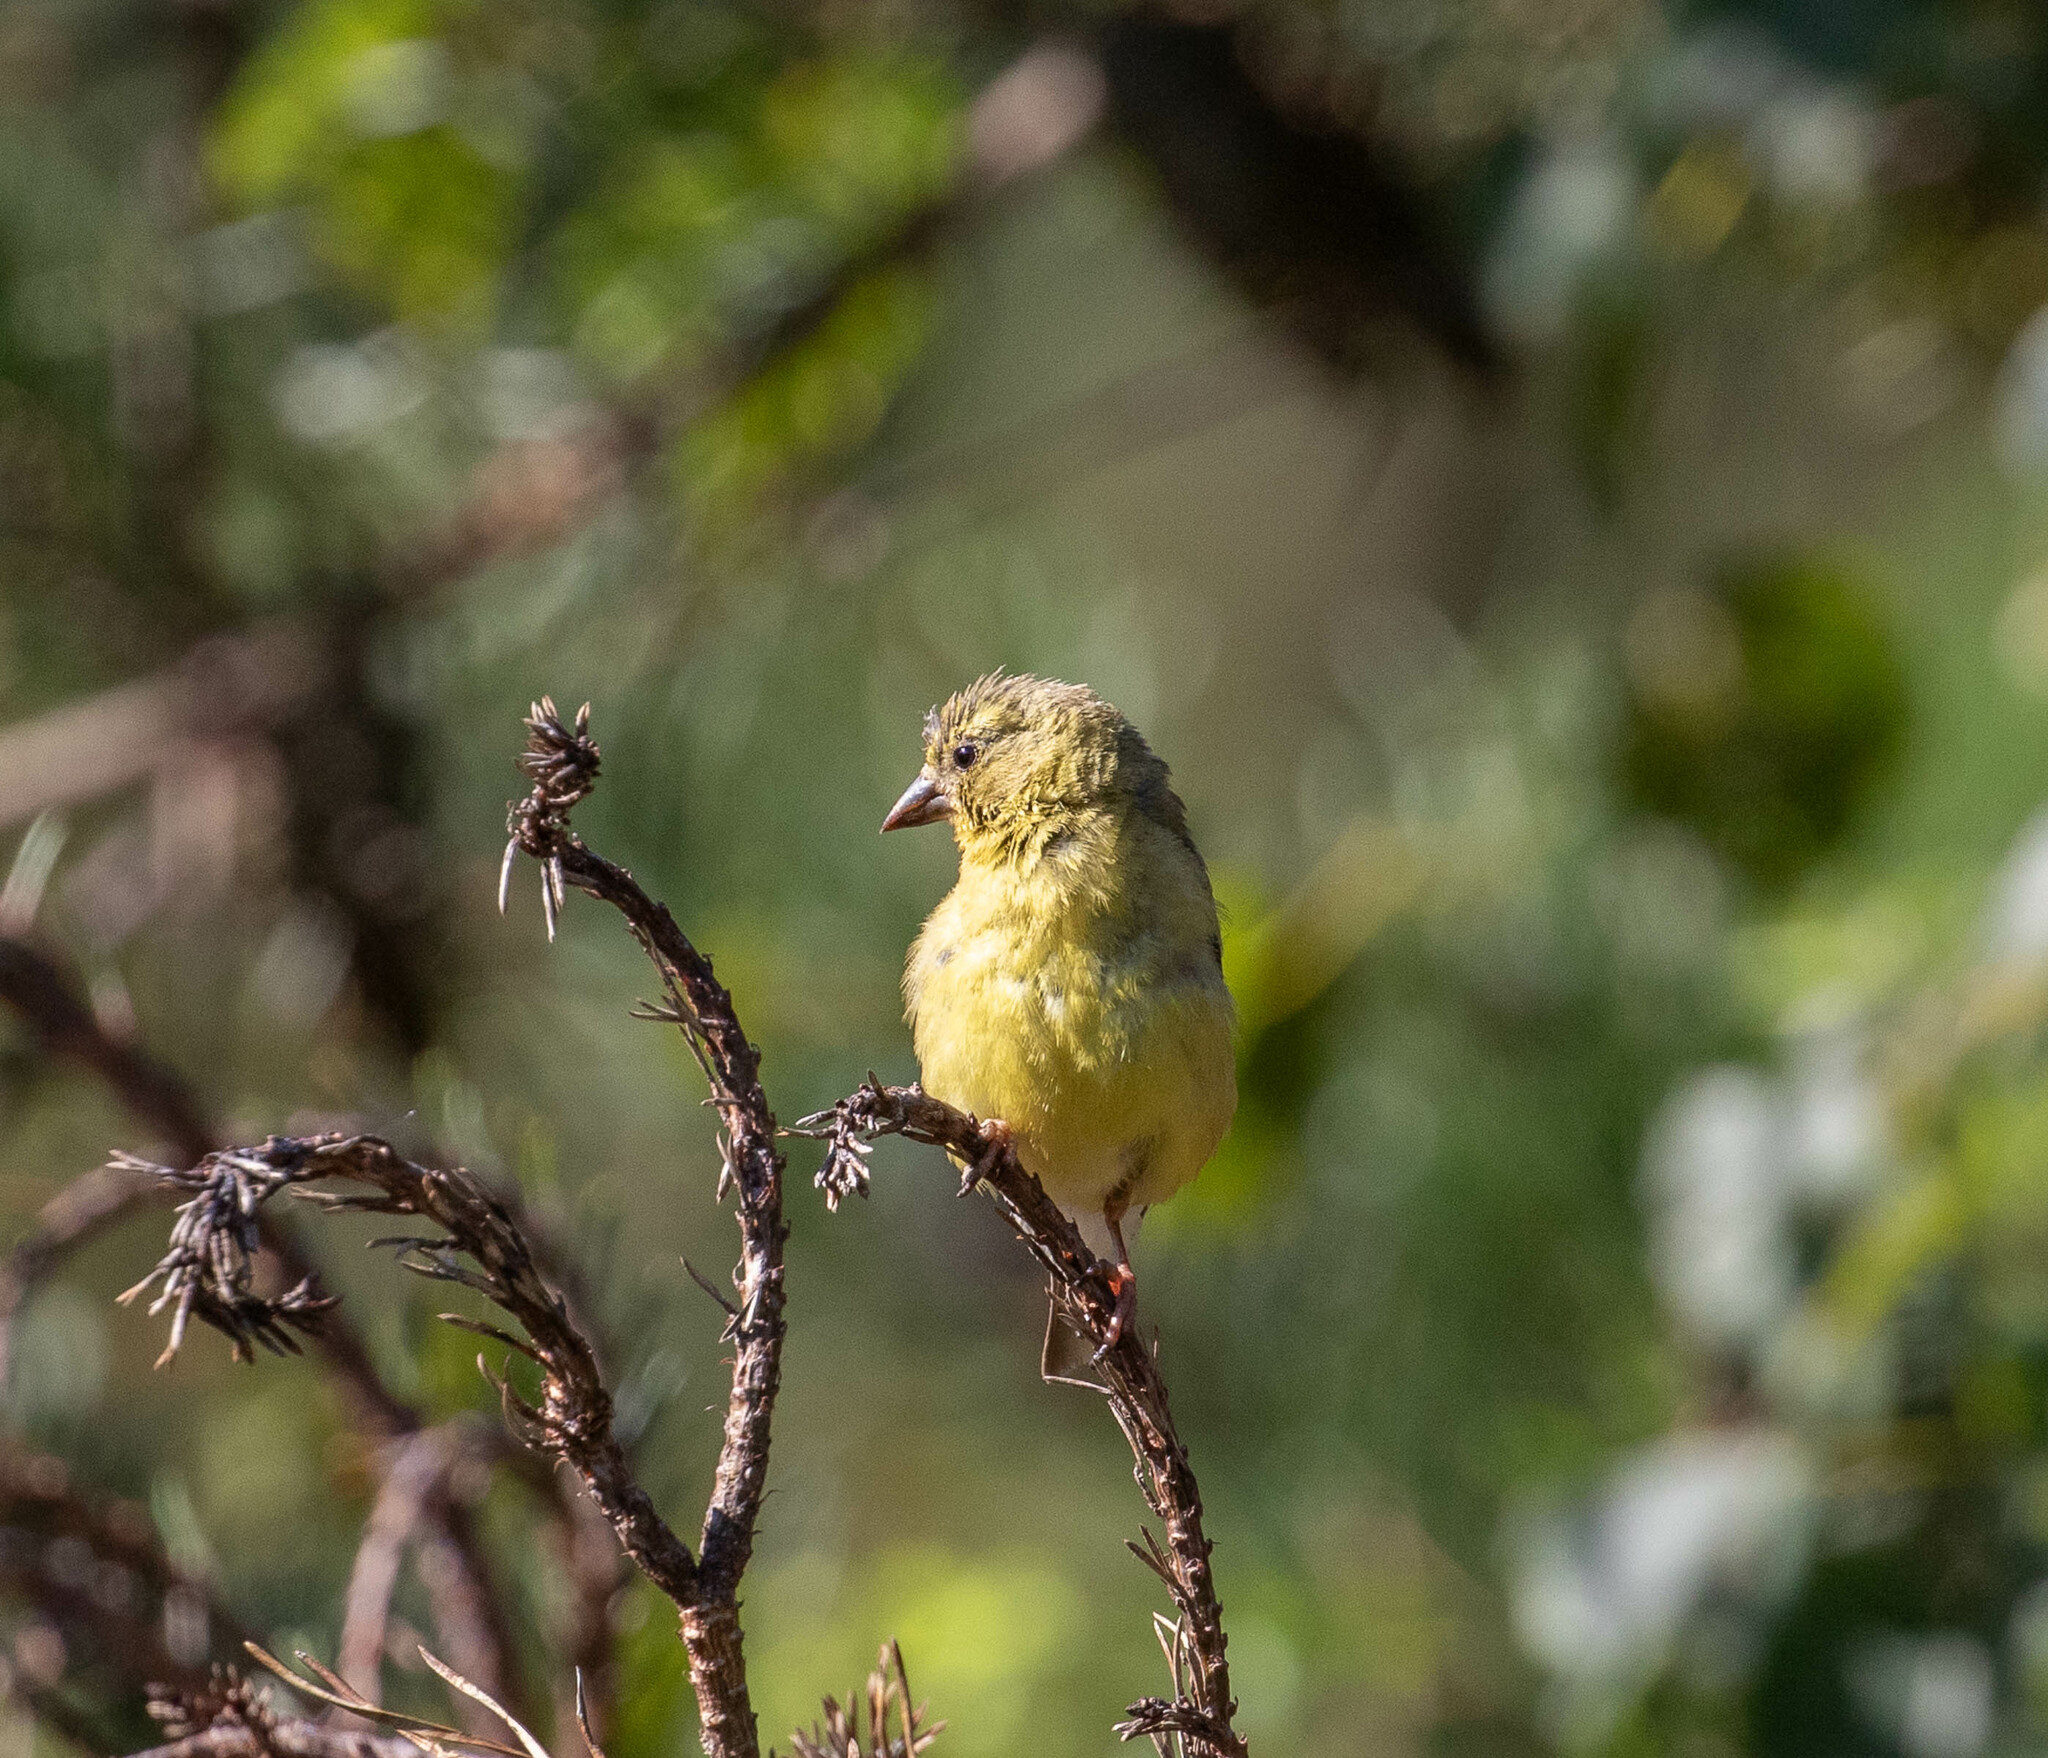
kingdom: Animalia
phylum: Chordata
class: Aves
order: Passeriformes
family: Fringillidae
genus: Spinus
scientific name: Spinus tristis
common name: American goldfinch
